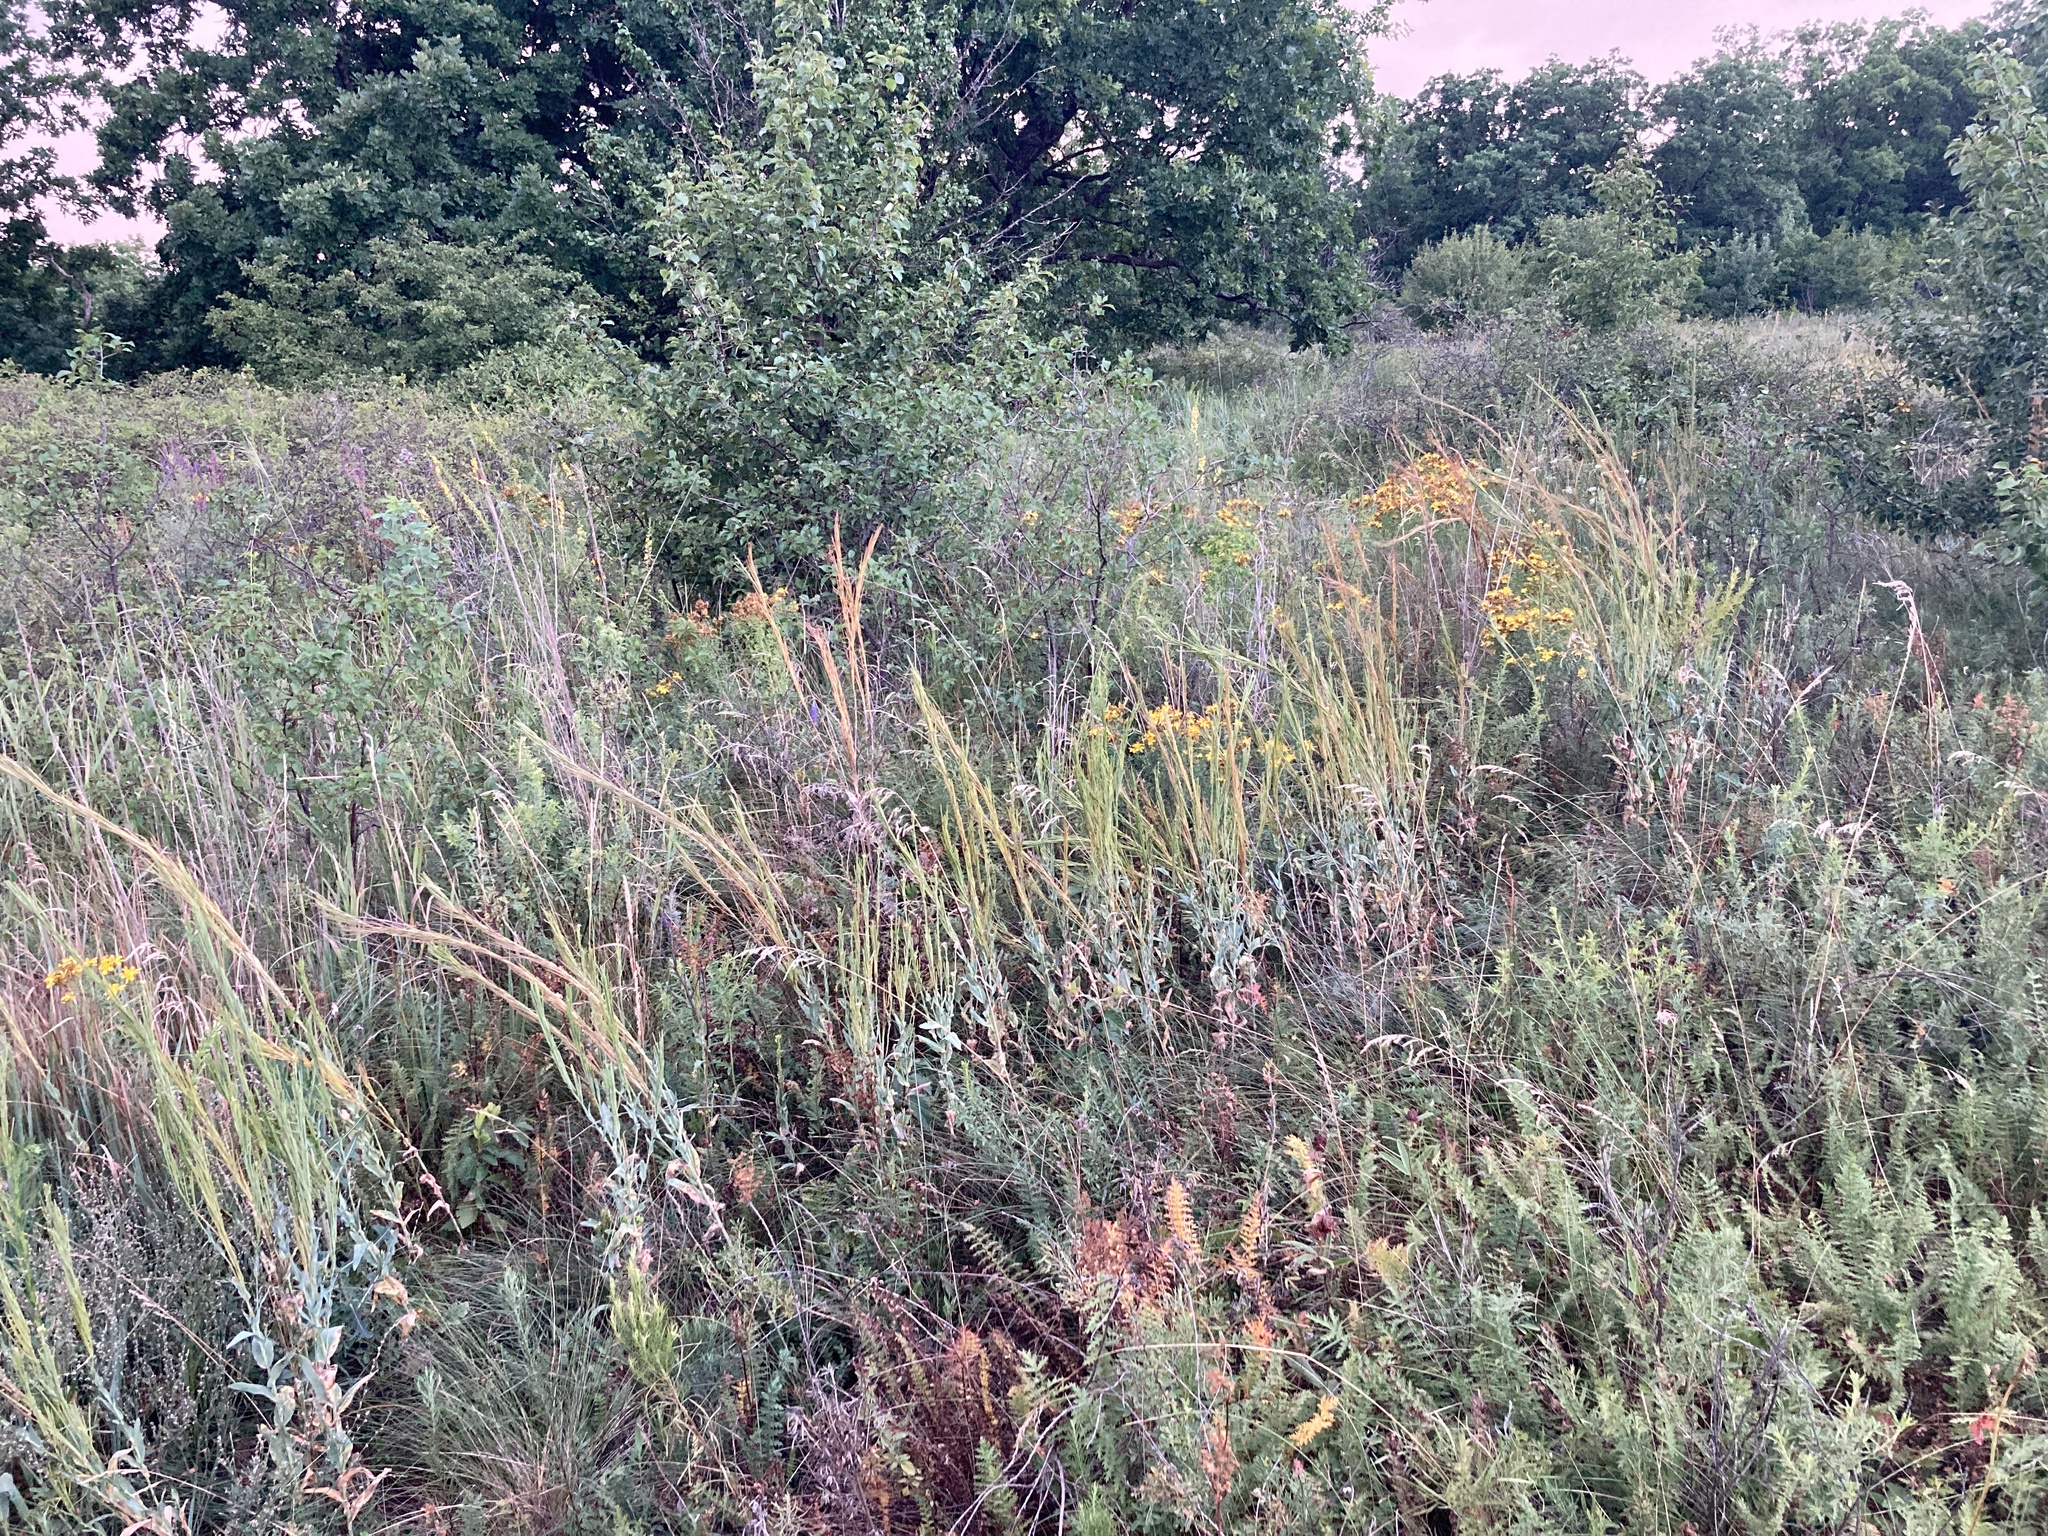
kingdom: Plantae
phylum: Tracheophyta
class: Magnoliopsida
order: Brassicales
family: Brassicaceae
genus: Turritis
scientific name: Turritis glabra
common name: Tower rockcress
